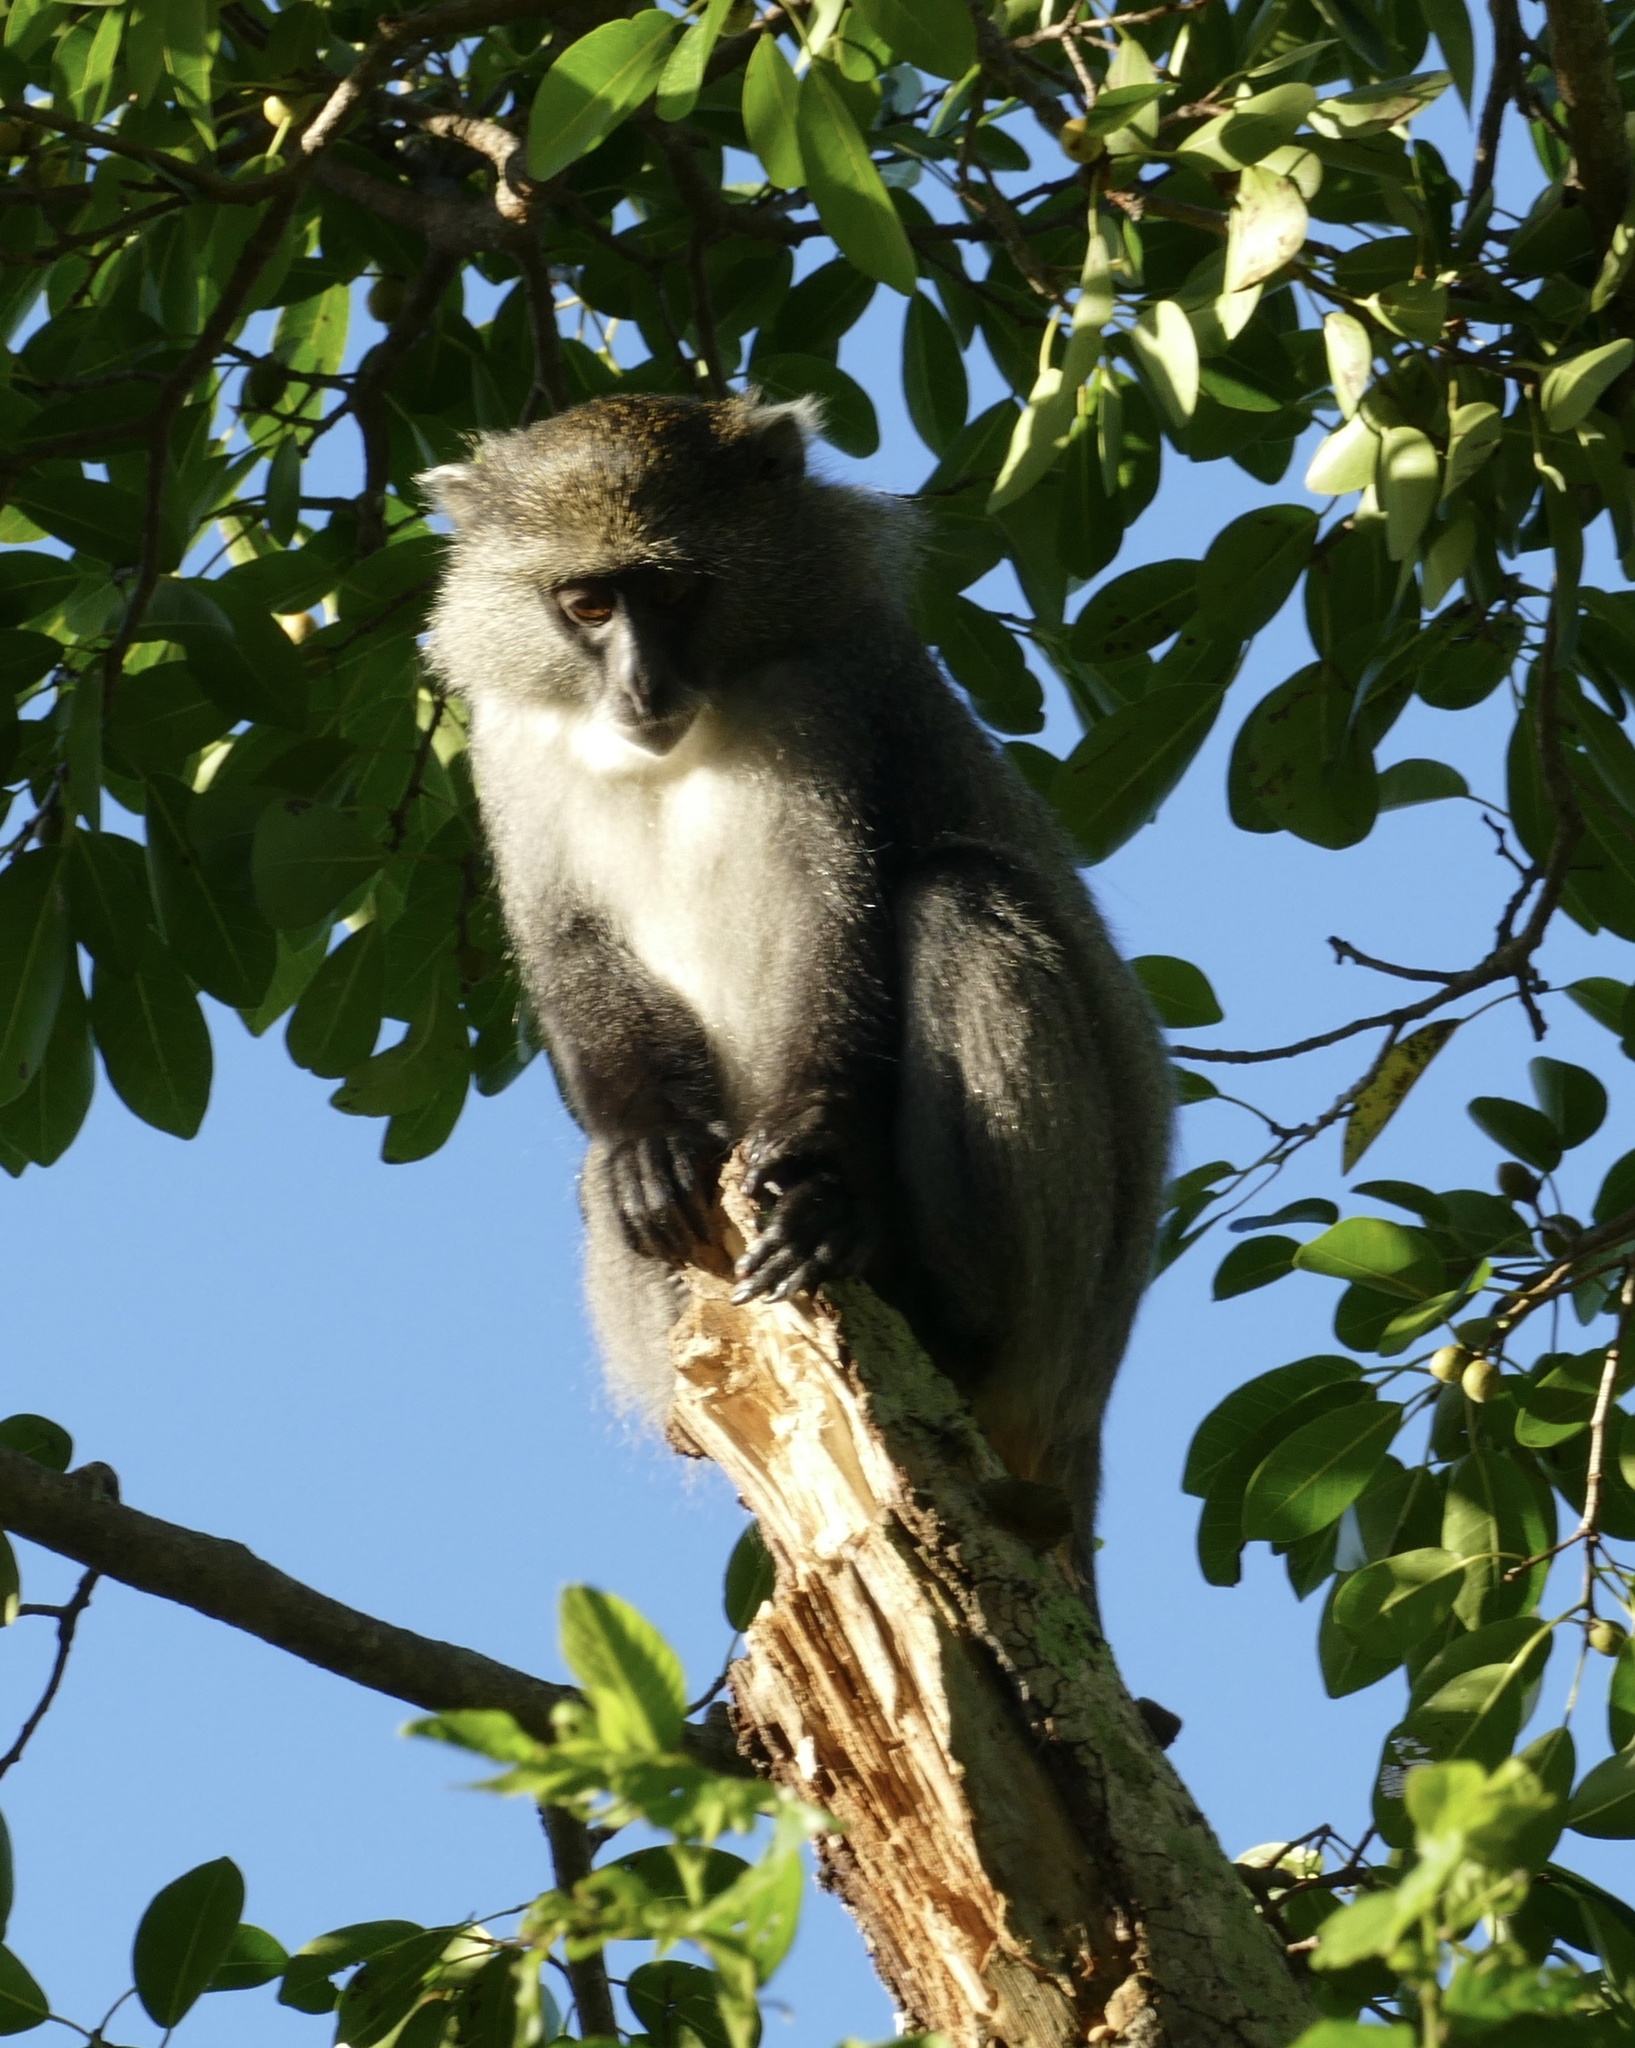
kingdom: Animalia
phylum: Chordata
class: Mammalia
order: Primates
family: Cercopithecidae
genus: Cercopithecus
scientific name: Cercopithecus mitis
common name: Blue monkey
